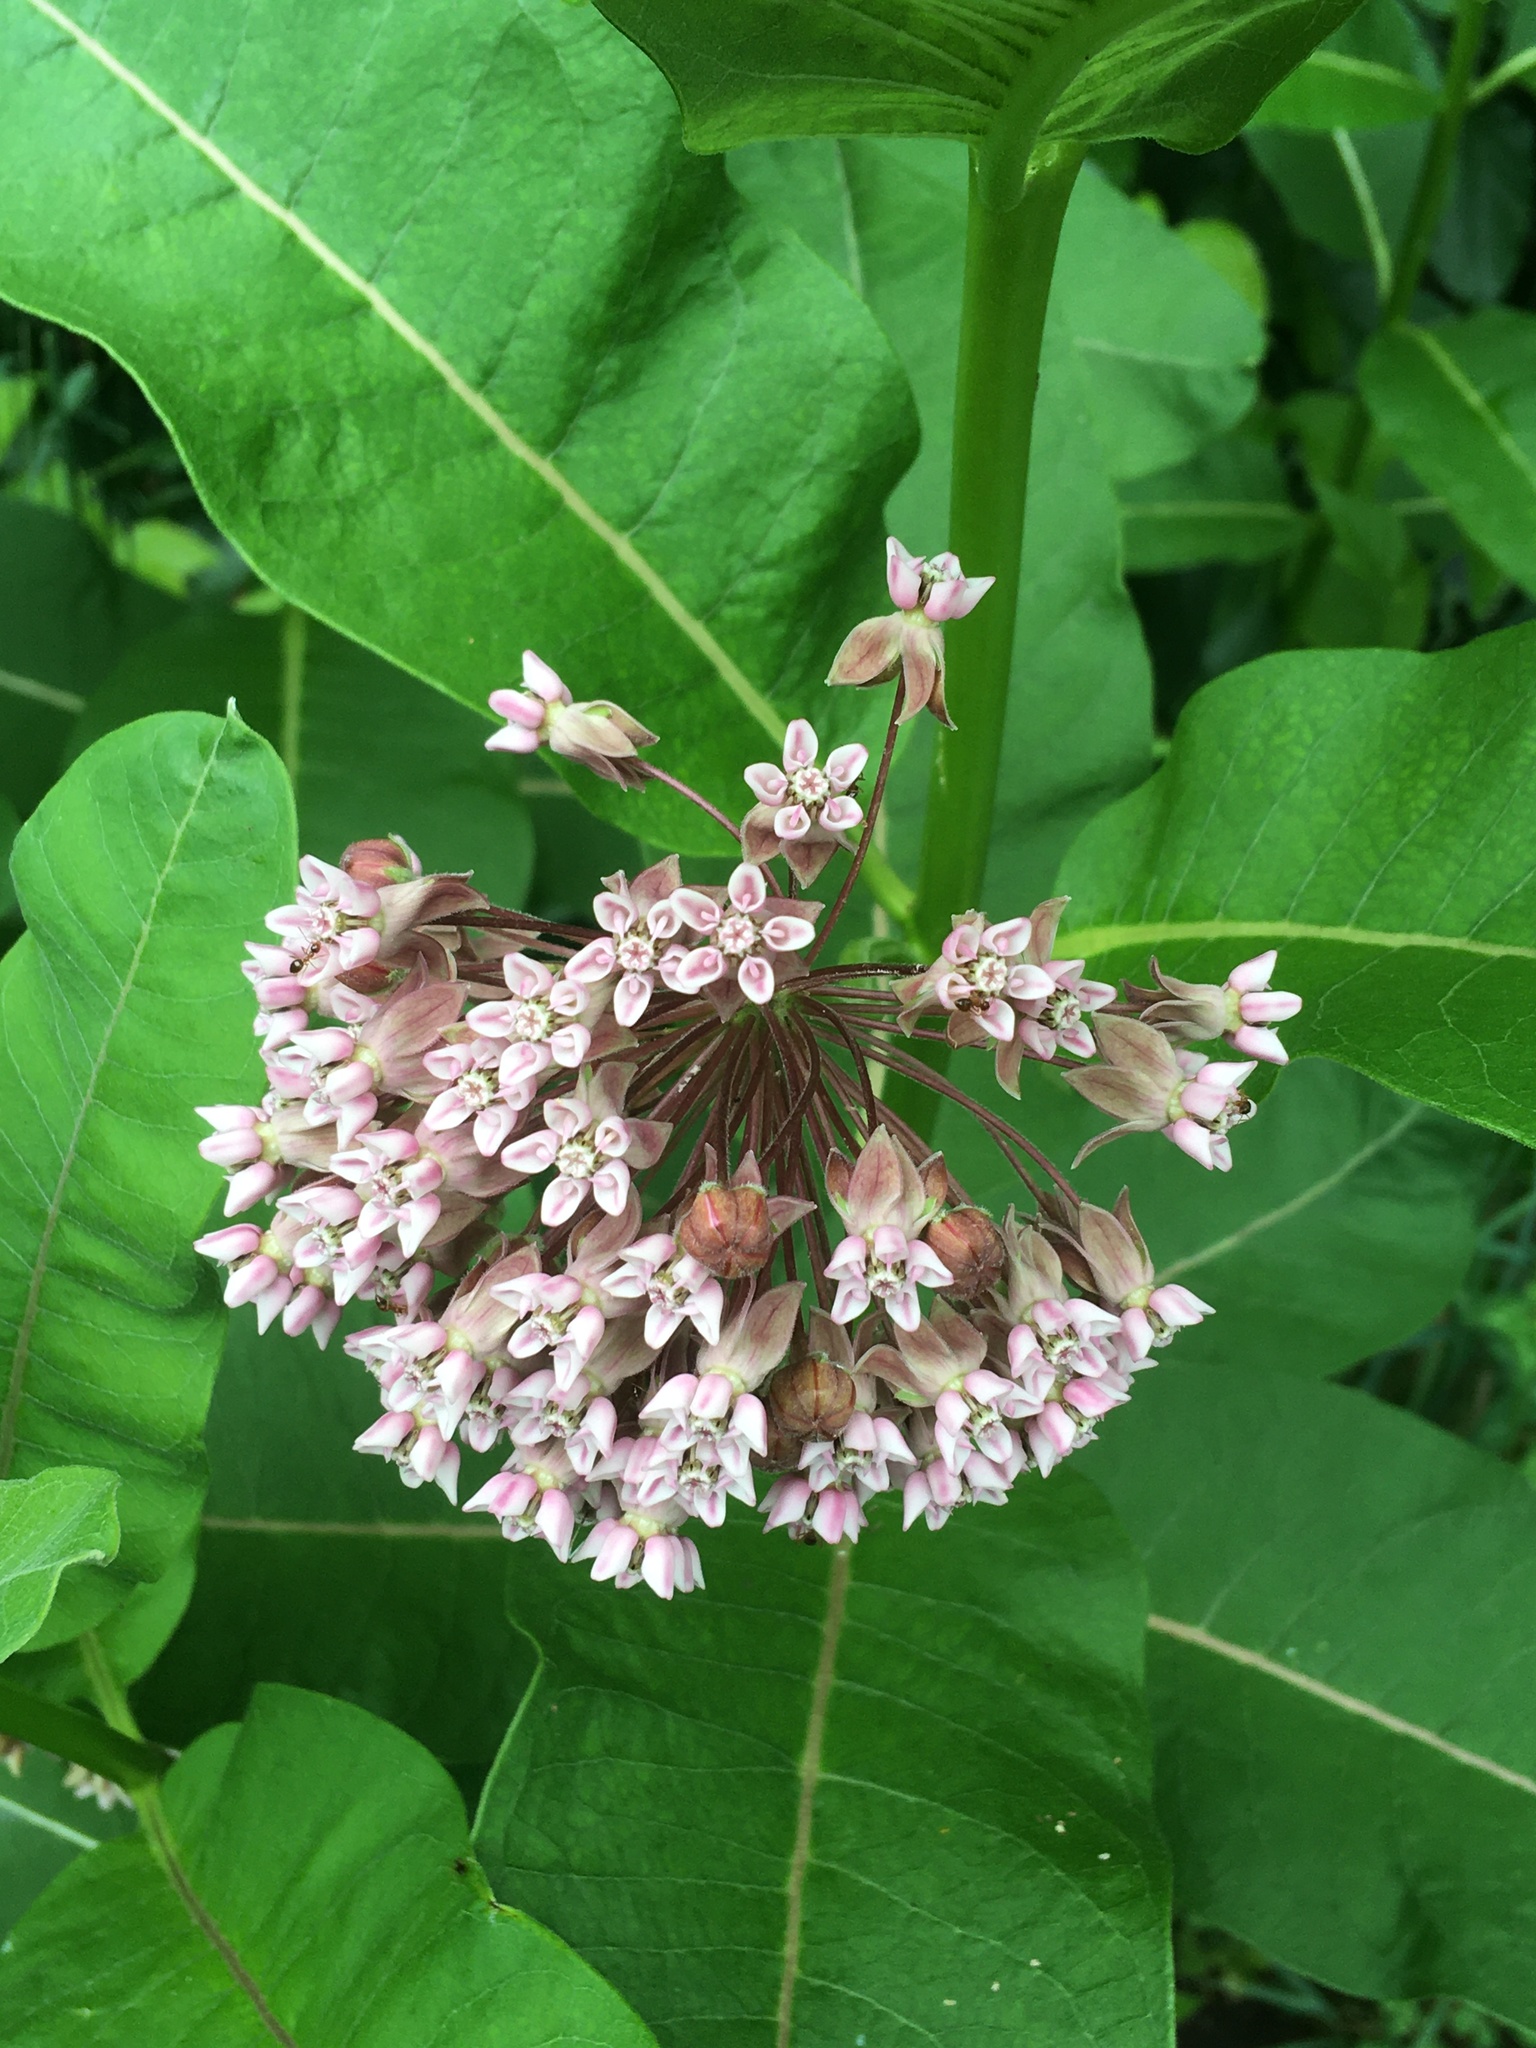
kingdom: Plantae
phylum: Tracheophyta
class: Magnoliopsida
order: Gentianales
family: Apocynaceae
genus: Asclepias
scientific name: Asclepias syriaca
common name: Common milkweed
